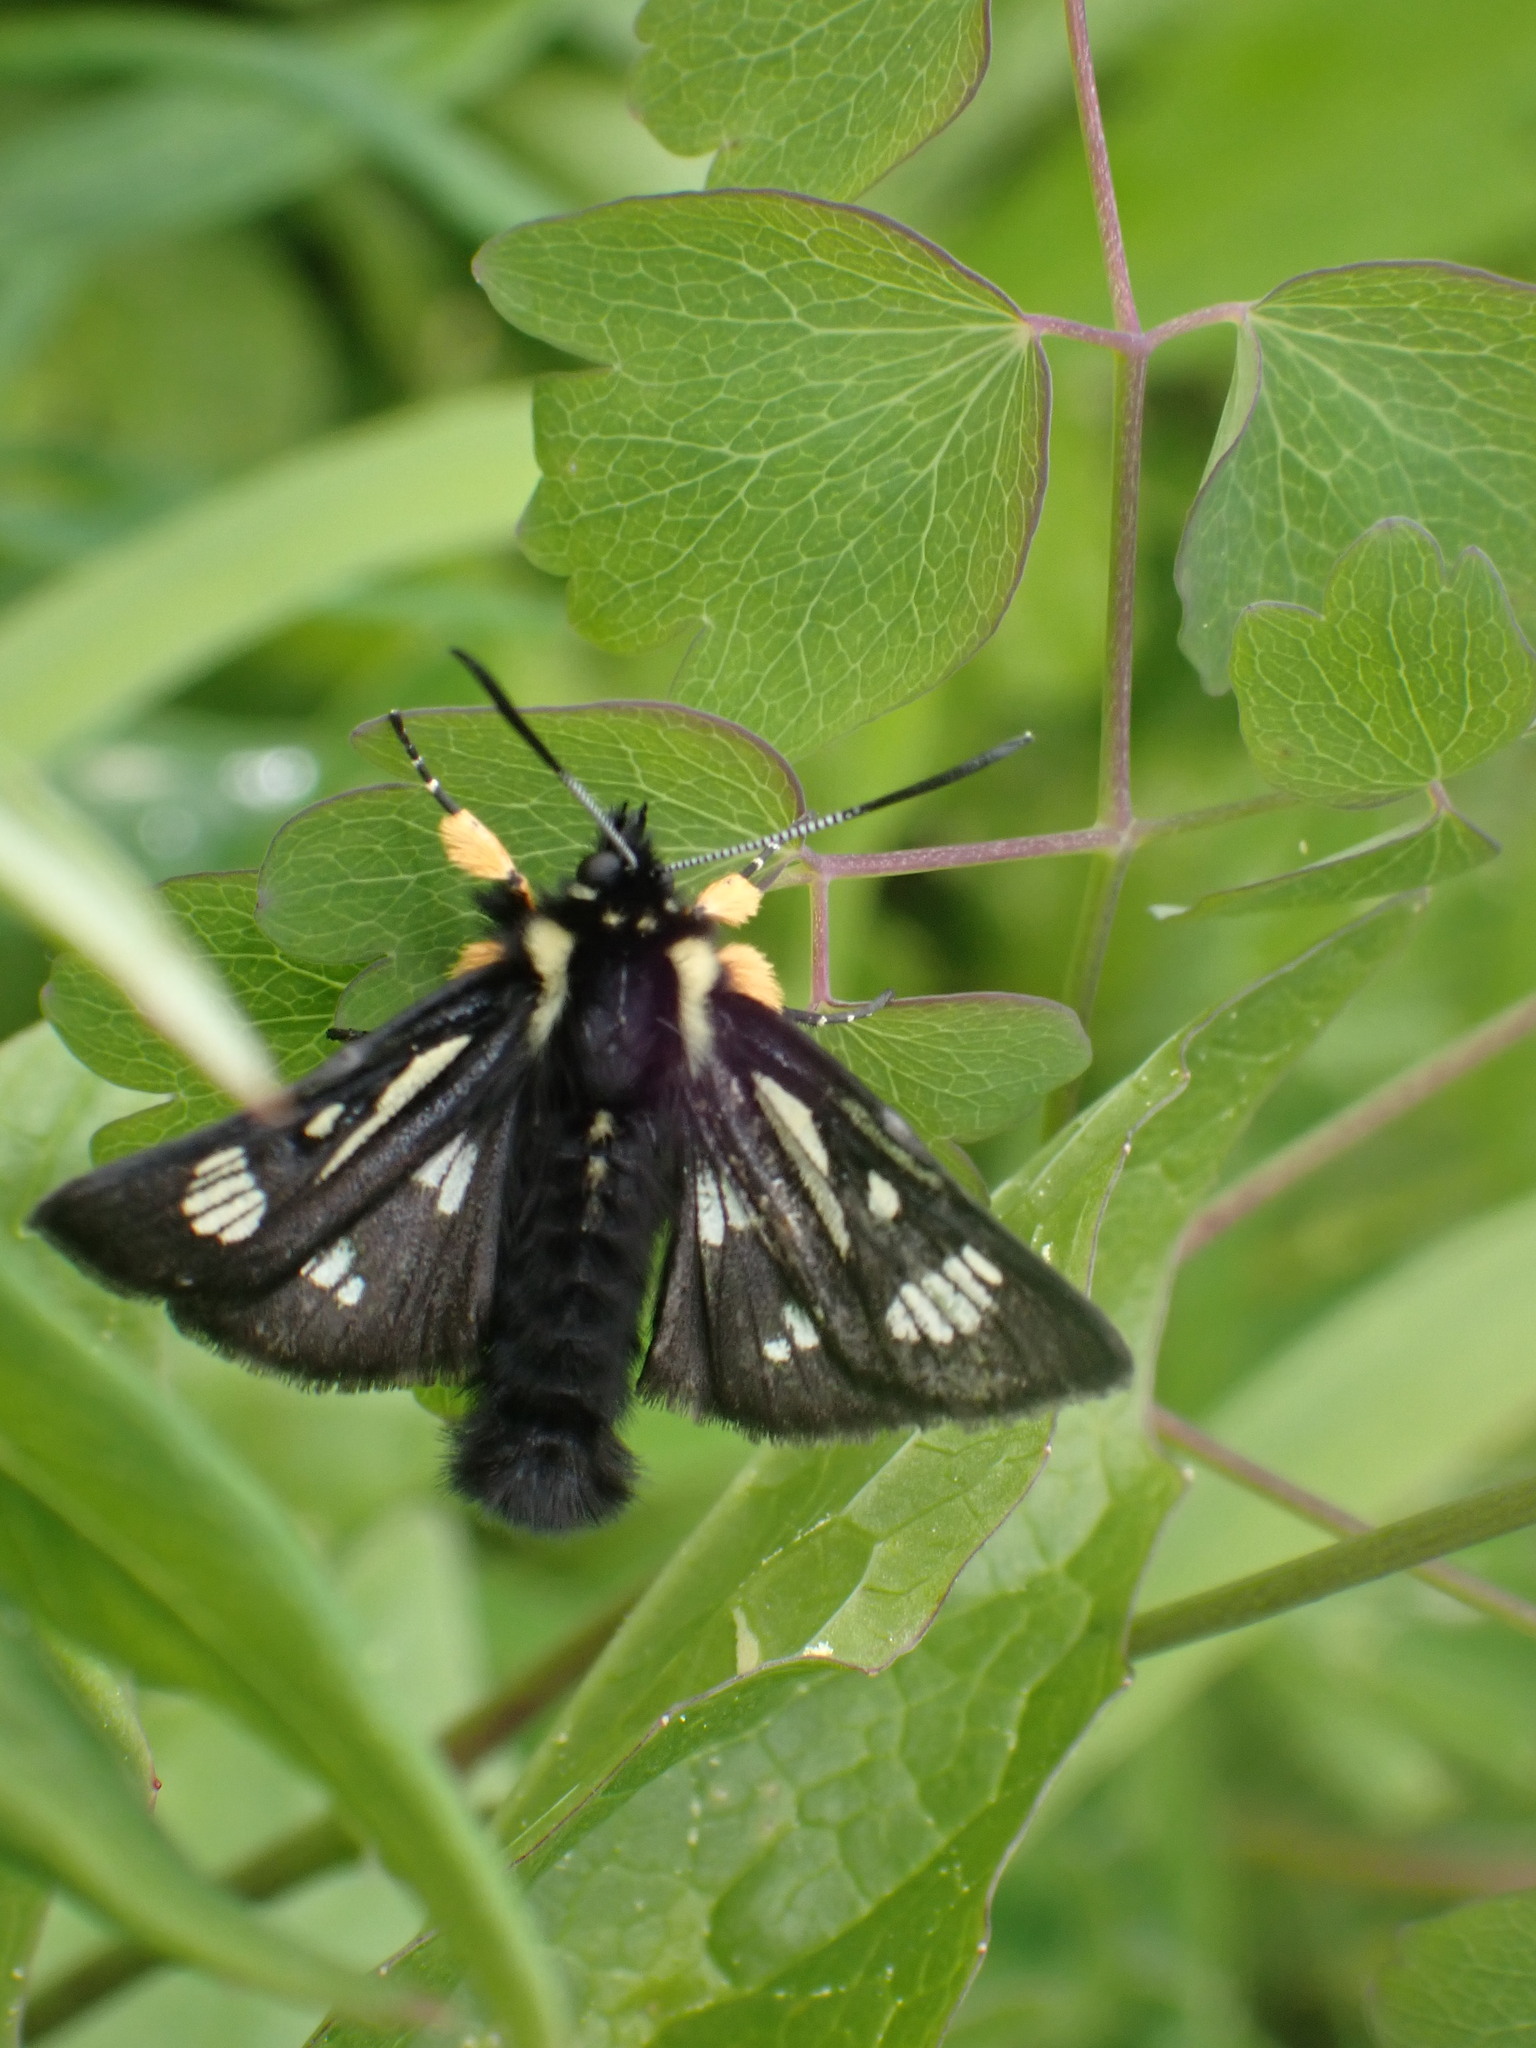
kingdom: Animalia
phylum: Arthropoda
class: Insecta
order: Lepidoptera
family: Noctuidae
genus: Alypia
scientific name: Alypia maccullochii
